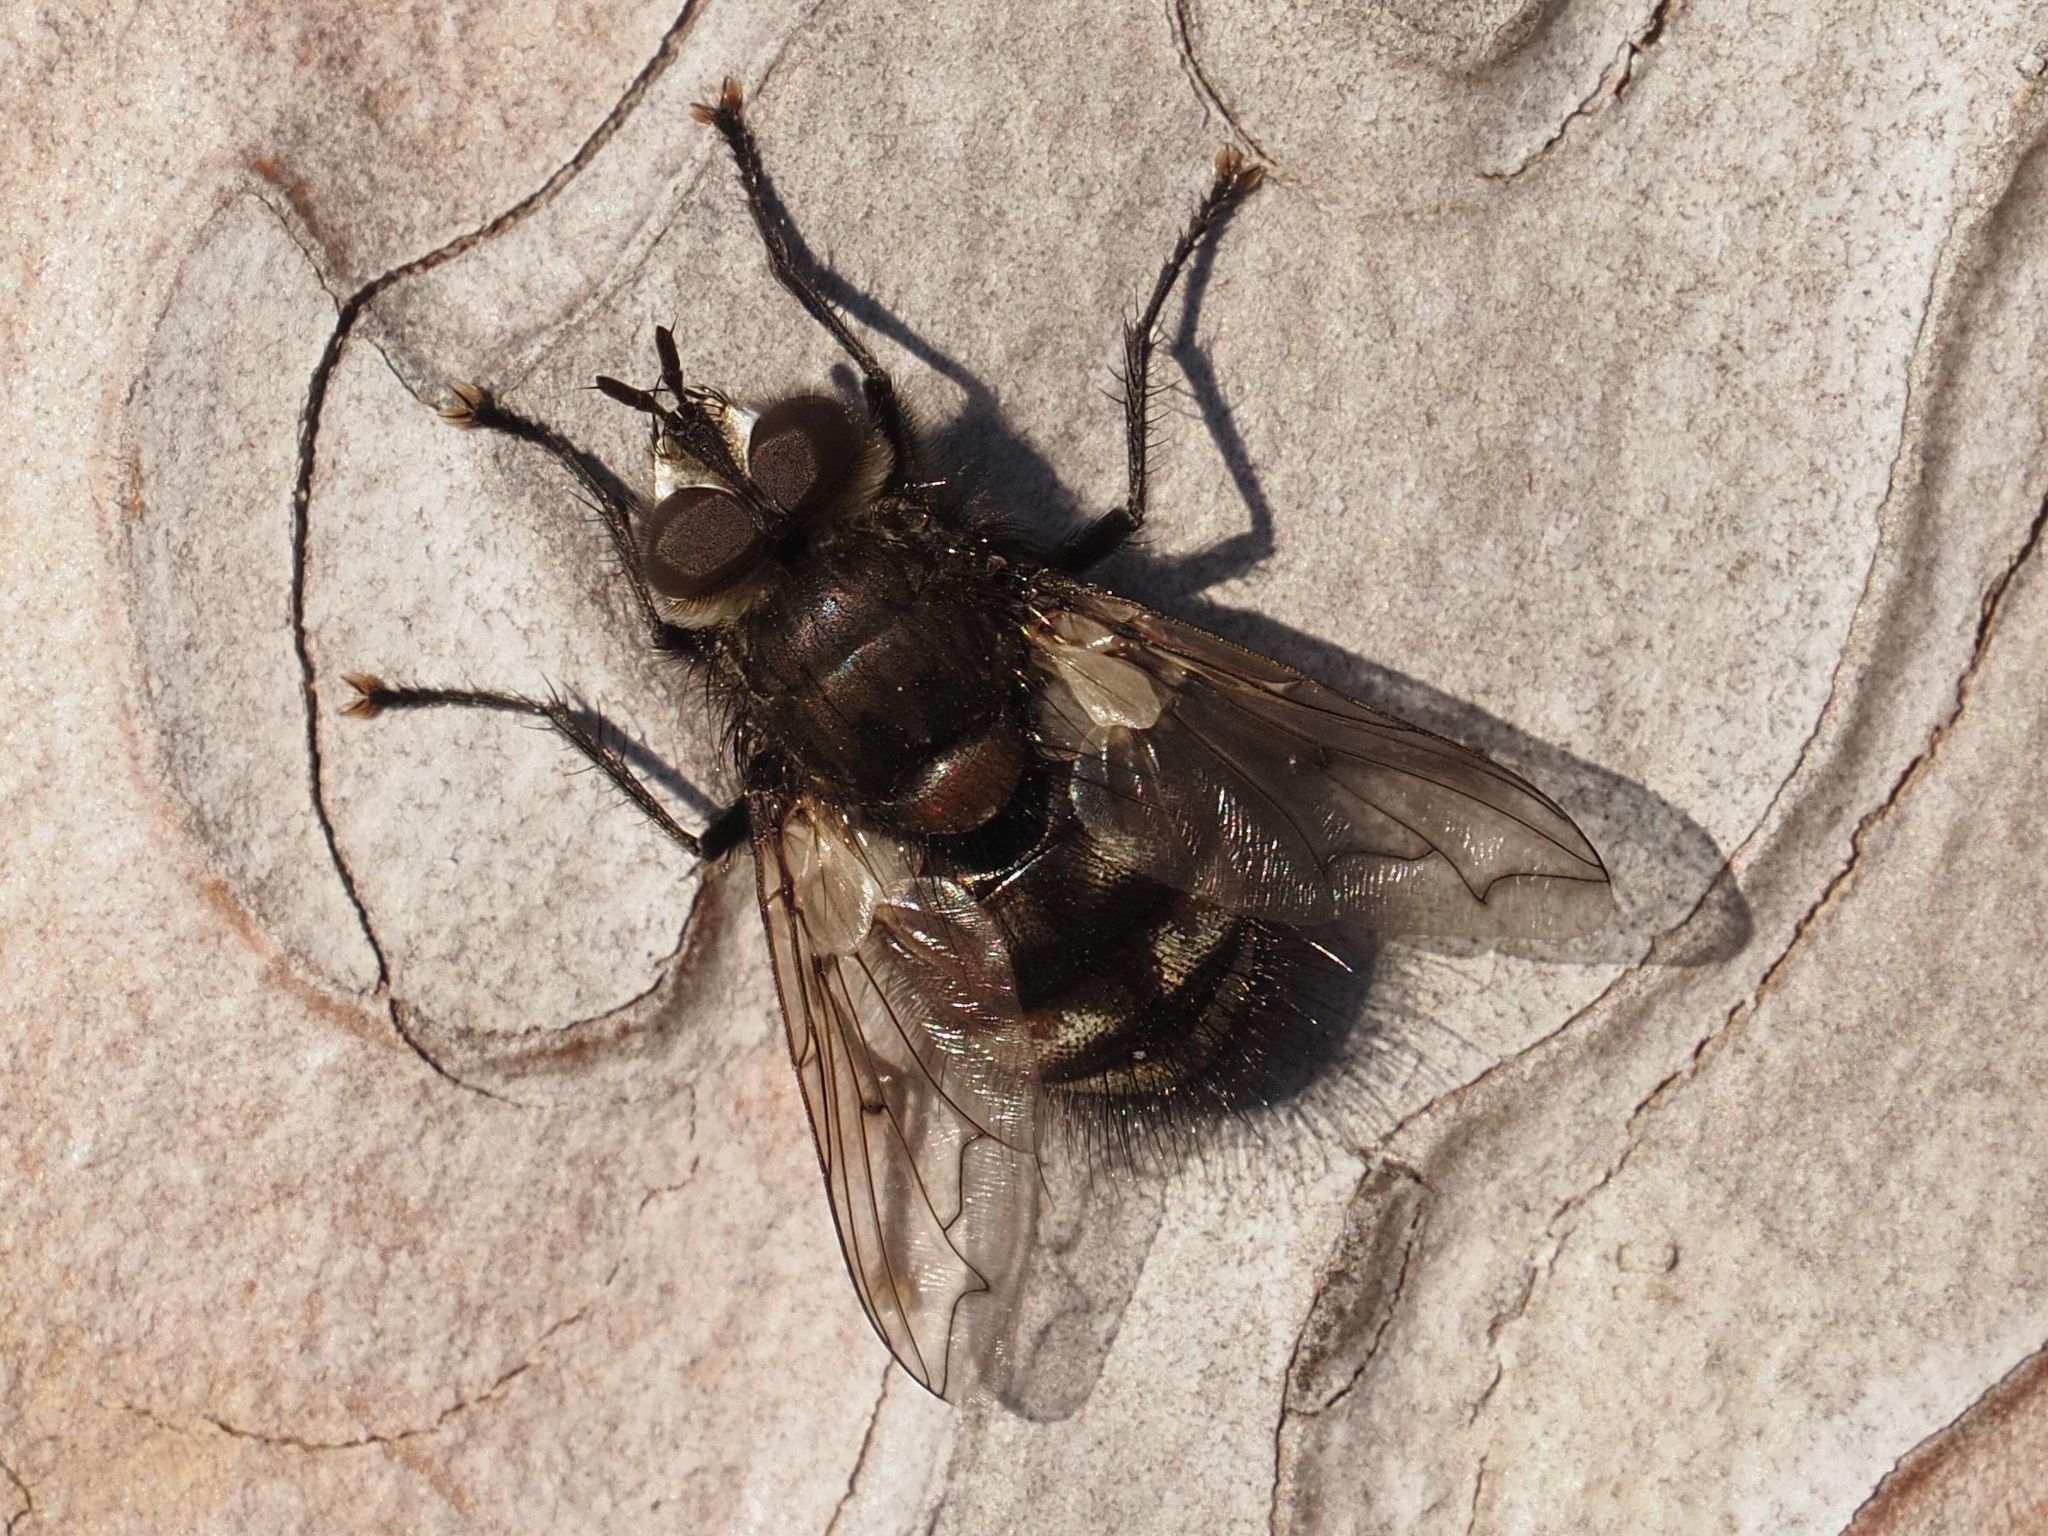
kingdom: Animalia
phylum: Arthropoda
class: Insecta
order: Diptera
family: Tachinidae
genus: Panzeria
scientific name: Panzeria puparum
